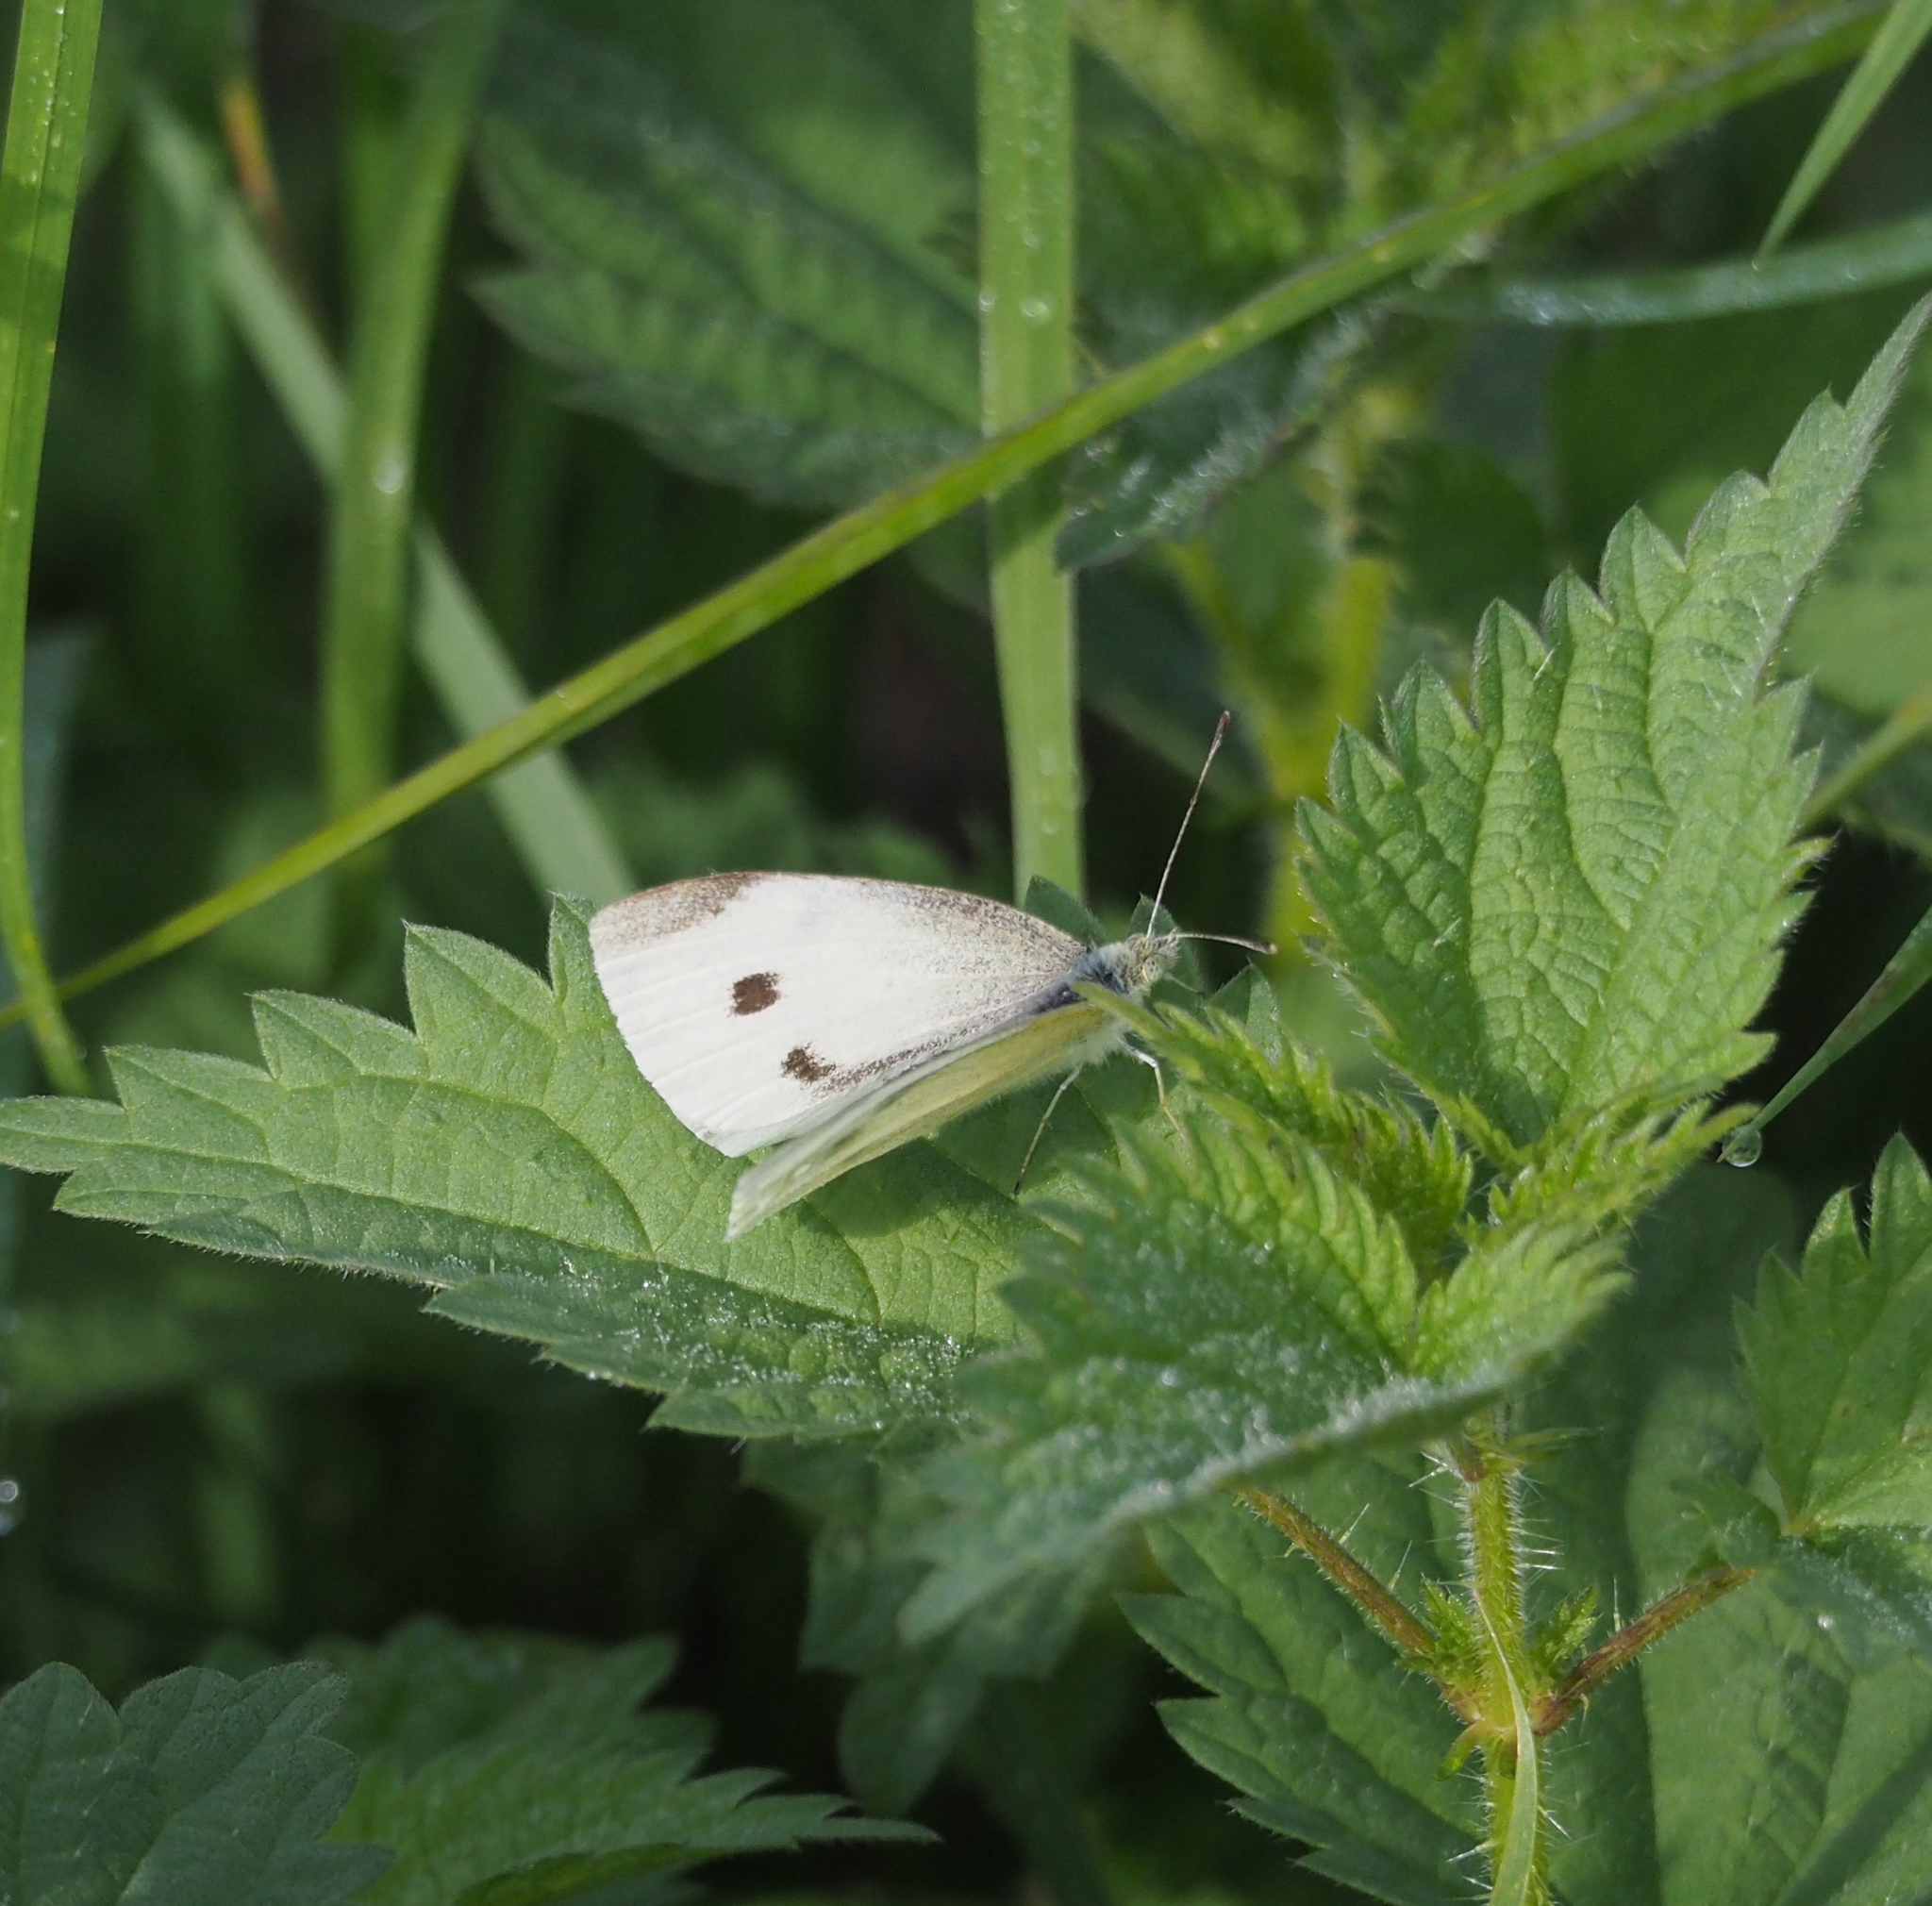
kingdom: Animalia
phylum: Arthropoda
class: Insecta
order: Lepidoptera
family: Pieridae
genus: Pieris
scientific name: Pieris rapae
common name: Small white
